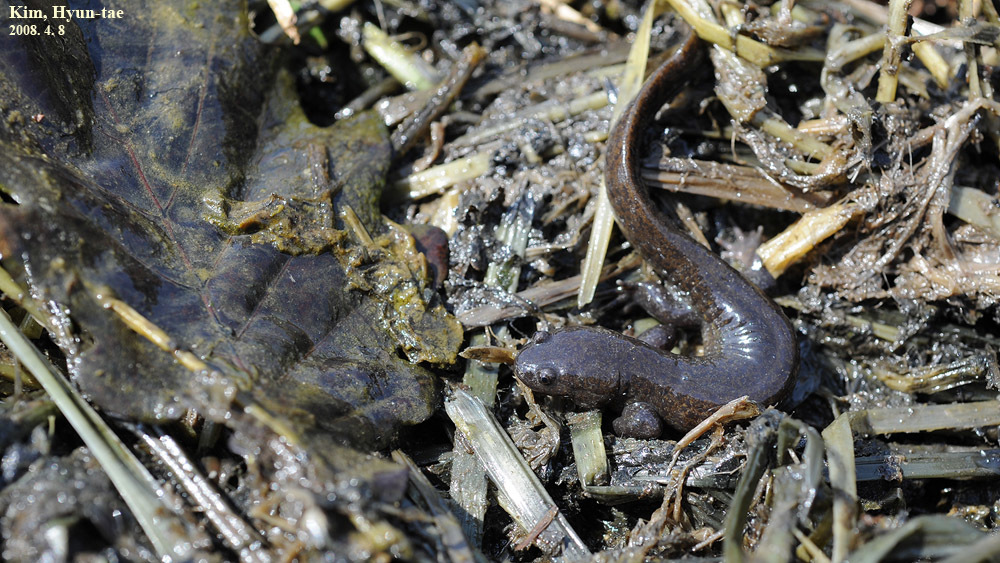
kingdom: Animalia
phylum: Chordata
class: Amphibia
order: Caudata
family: Hynobiidae
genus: Hynobius
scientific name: Hynobius leechii
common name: Gensan salamander
